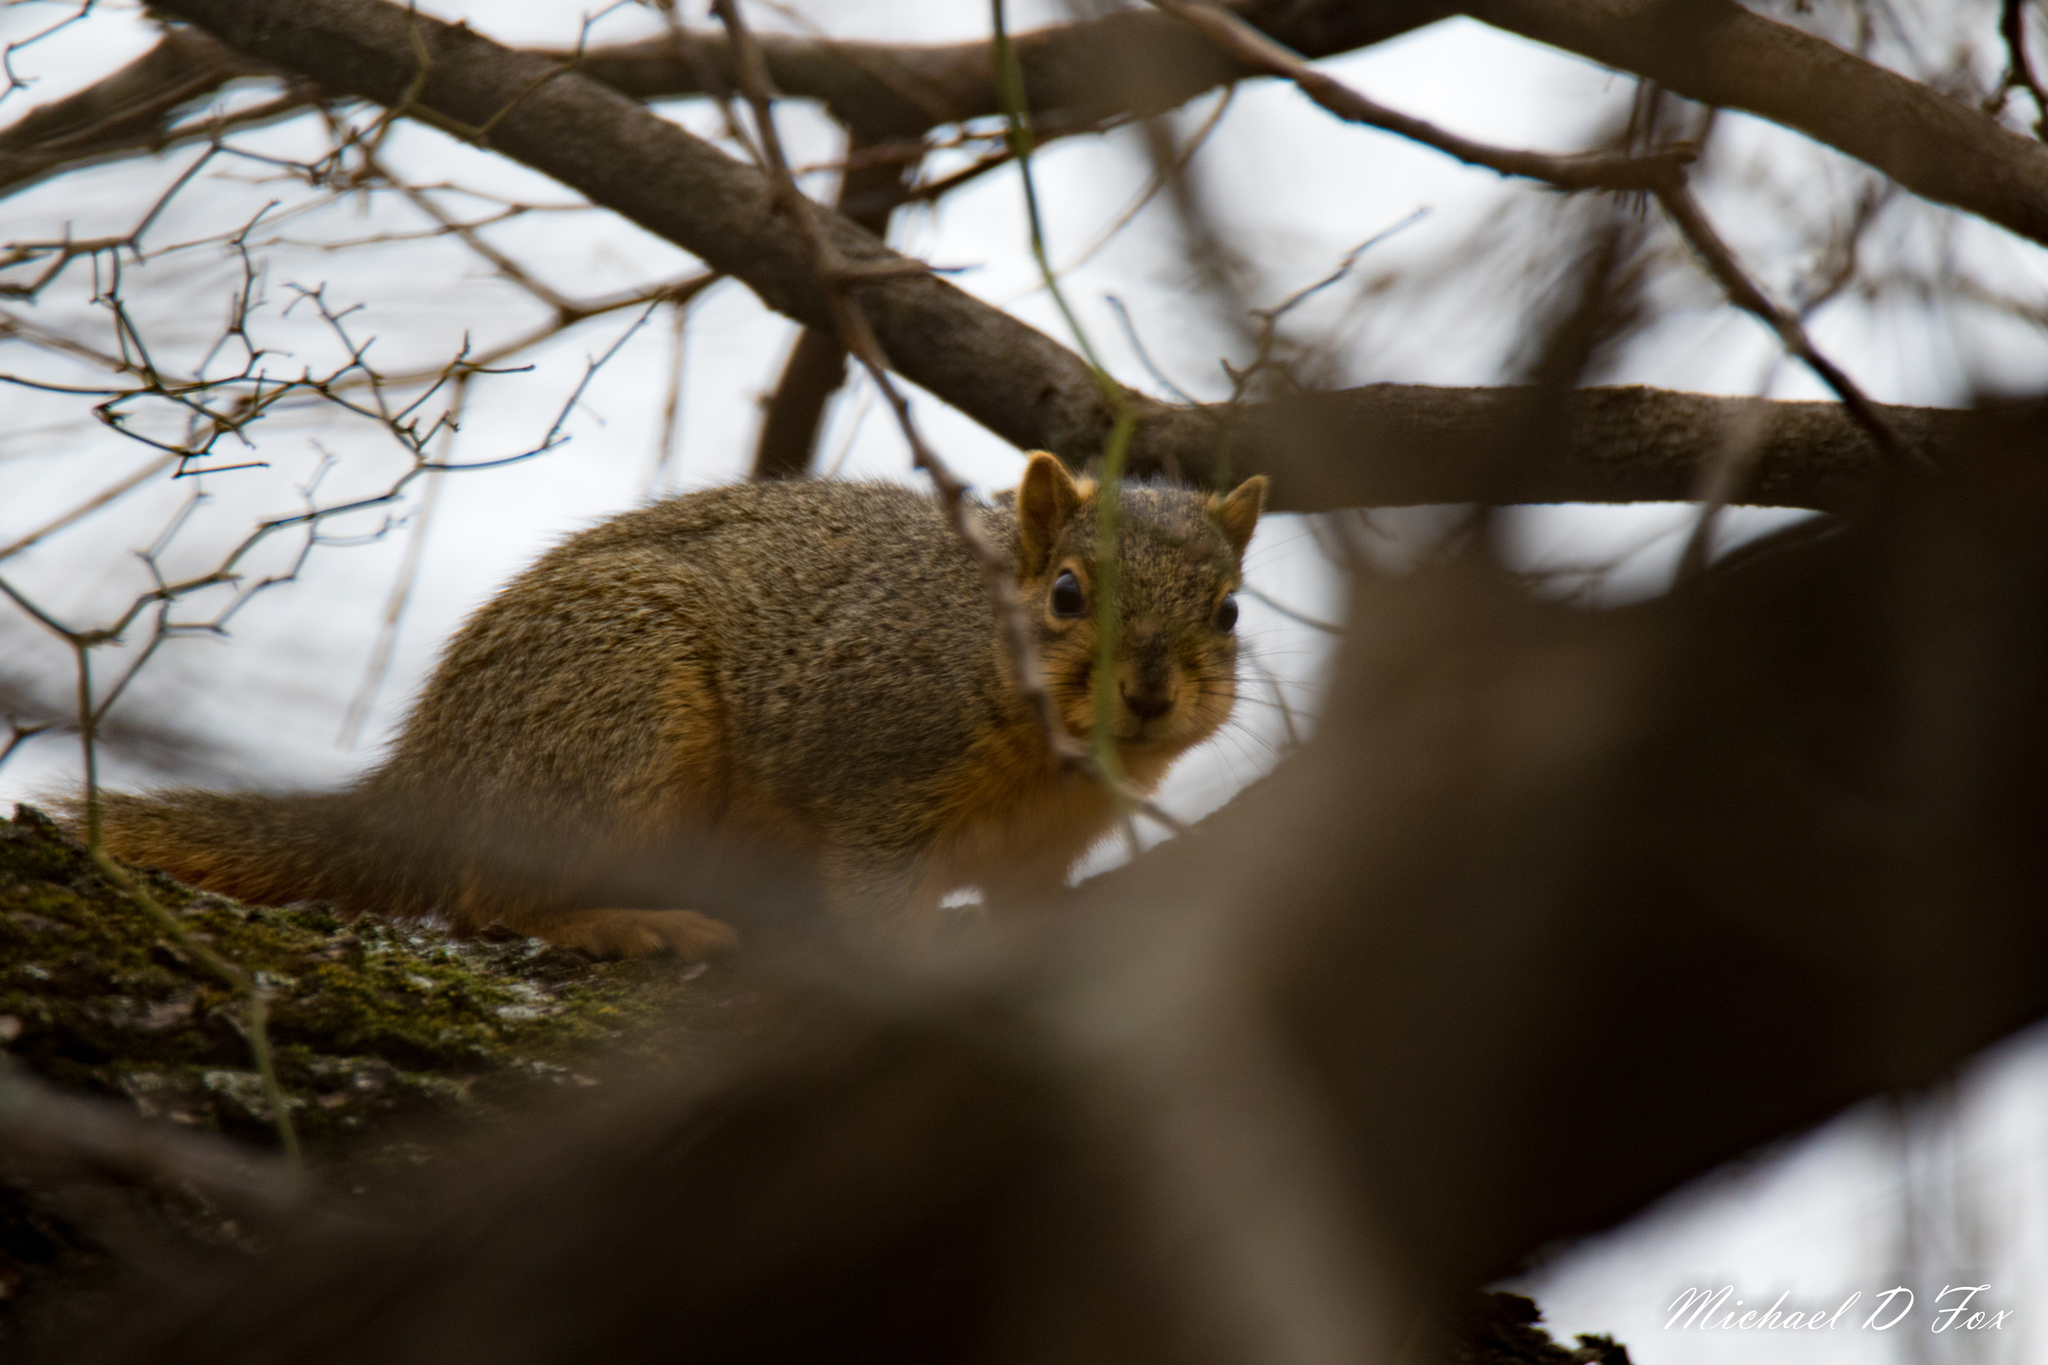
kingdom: Animalia
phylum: Chordata
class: Mammalia
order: Rodentia
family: Sciuridae
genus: Sciurus
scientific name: Sciurus niger
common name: Fox squirrel
